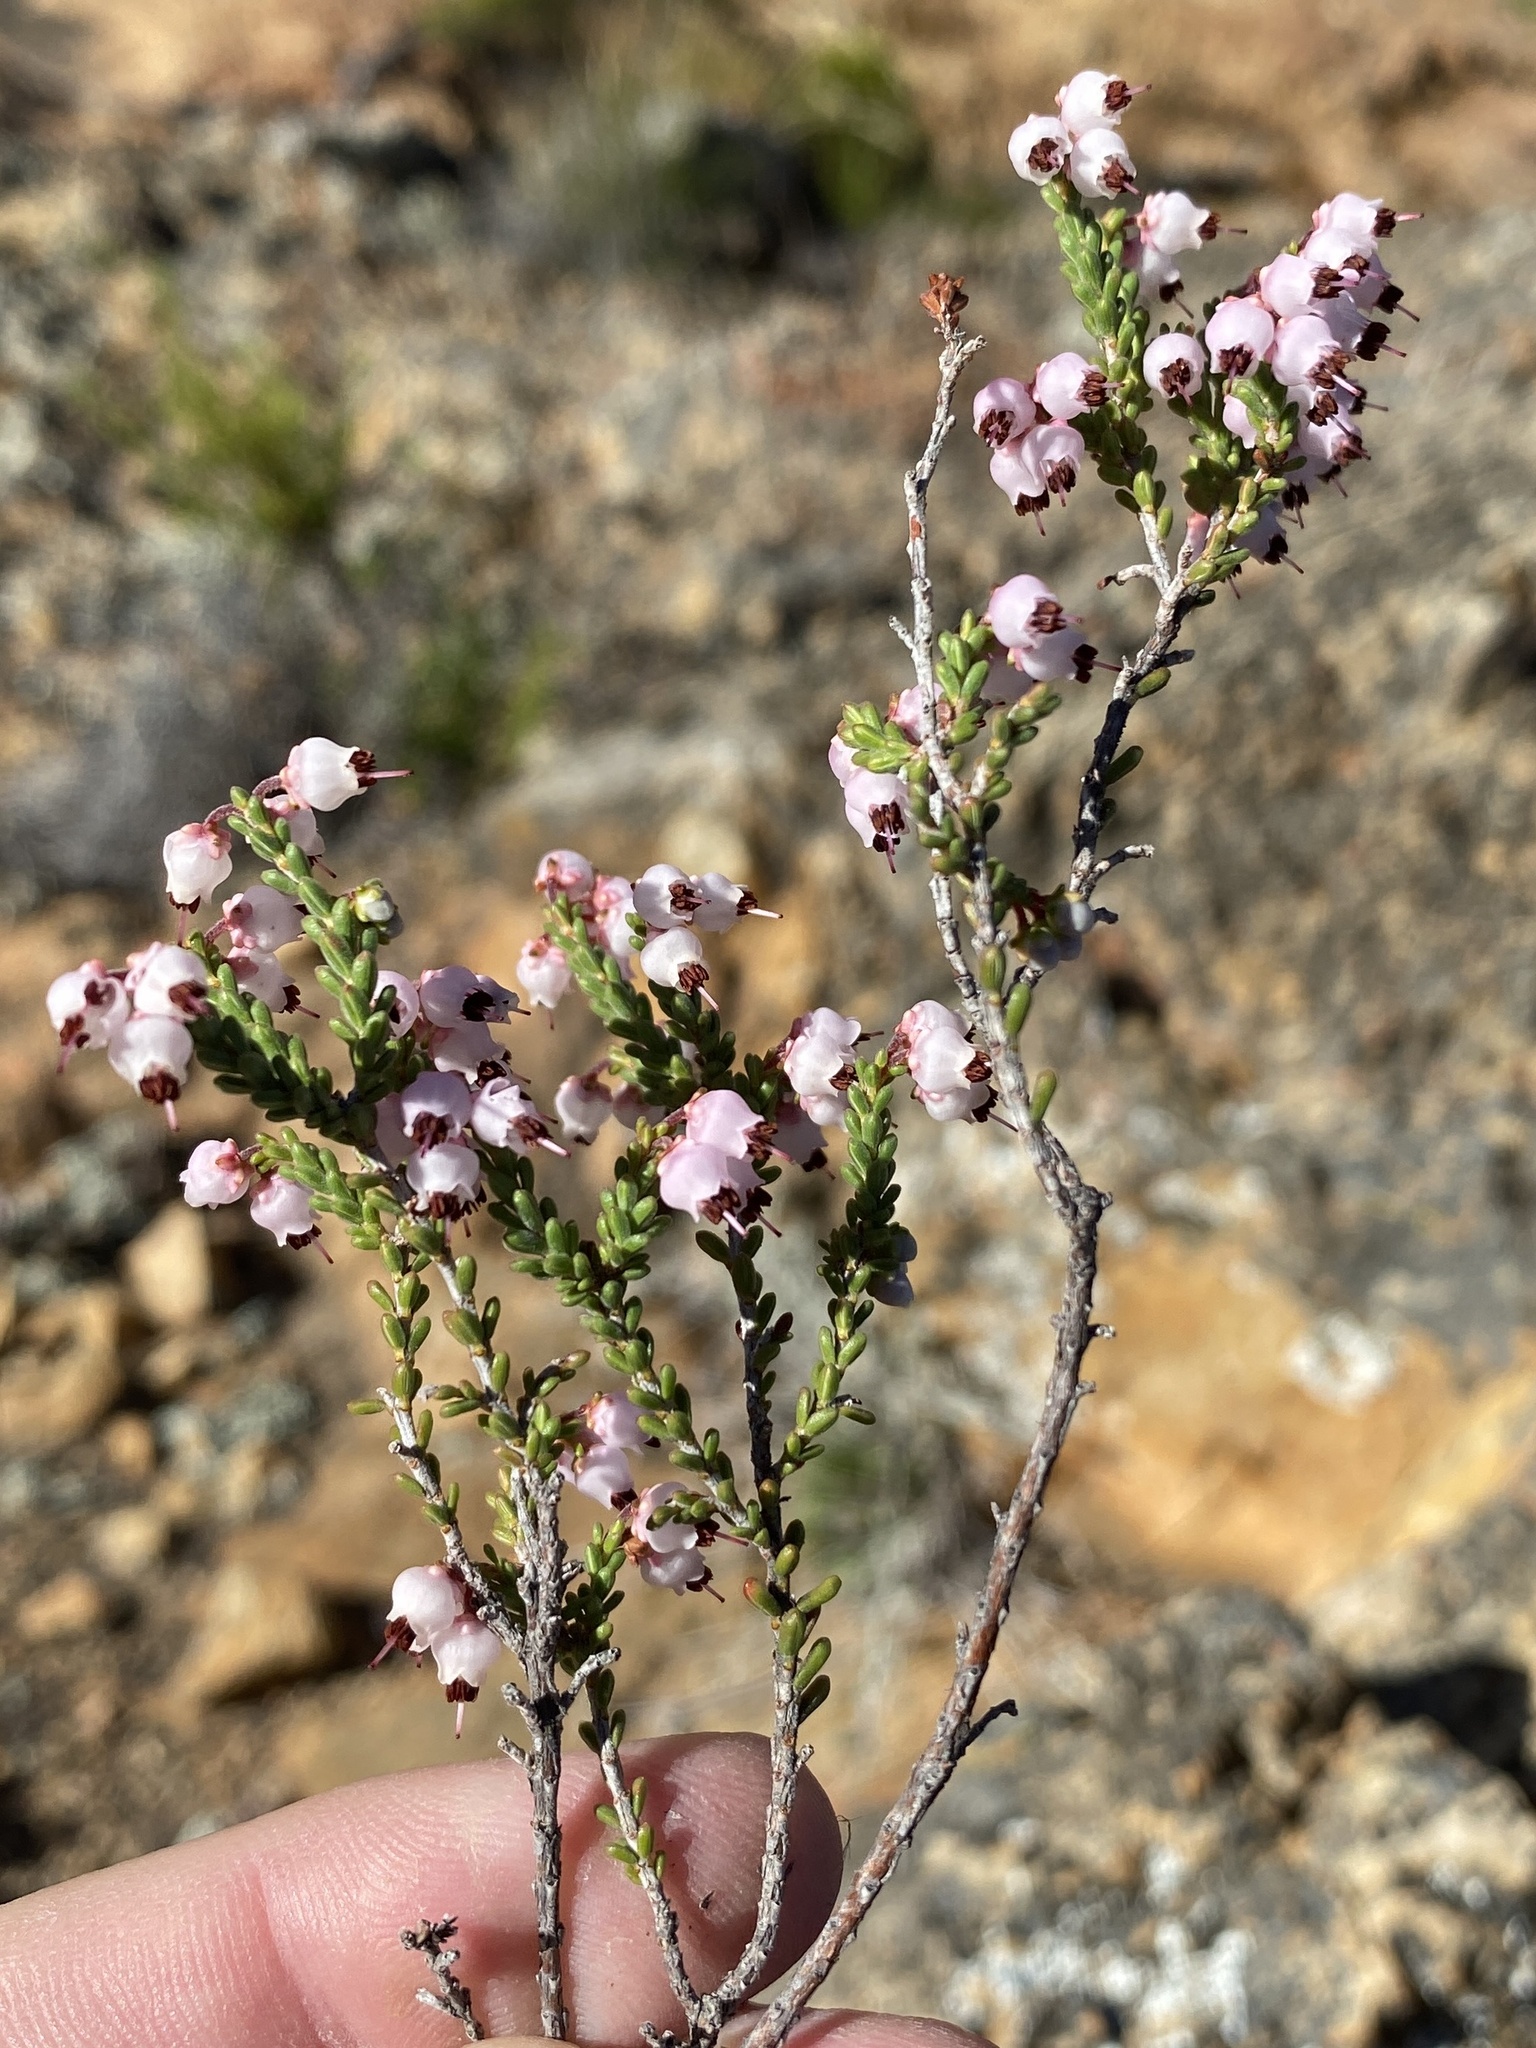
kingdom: Plantae
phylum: Tracheophyta
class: Magnoliopsida
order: Ericales
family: Ericaceae
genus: Erica
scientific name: Erica umbelliflora
